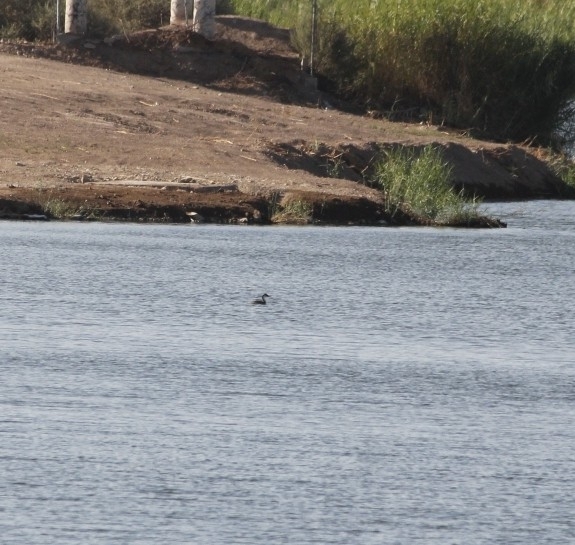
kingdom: Animalia
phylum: Chordata
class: Aves
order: Podicipediformes
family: Podicipedidae
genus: Aechmophorus
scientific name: Aechmophorus occidentalis
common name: Western grebe
